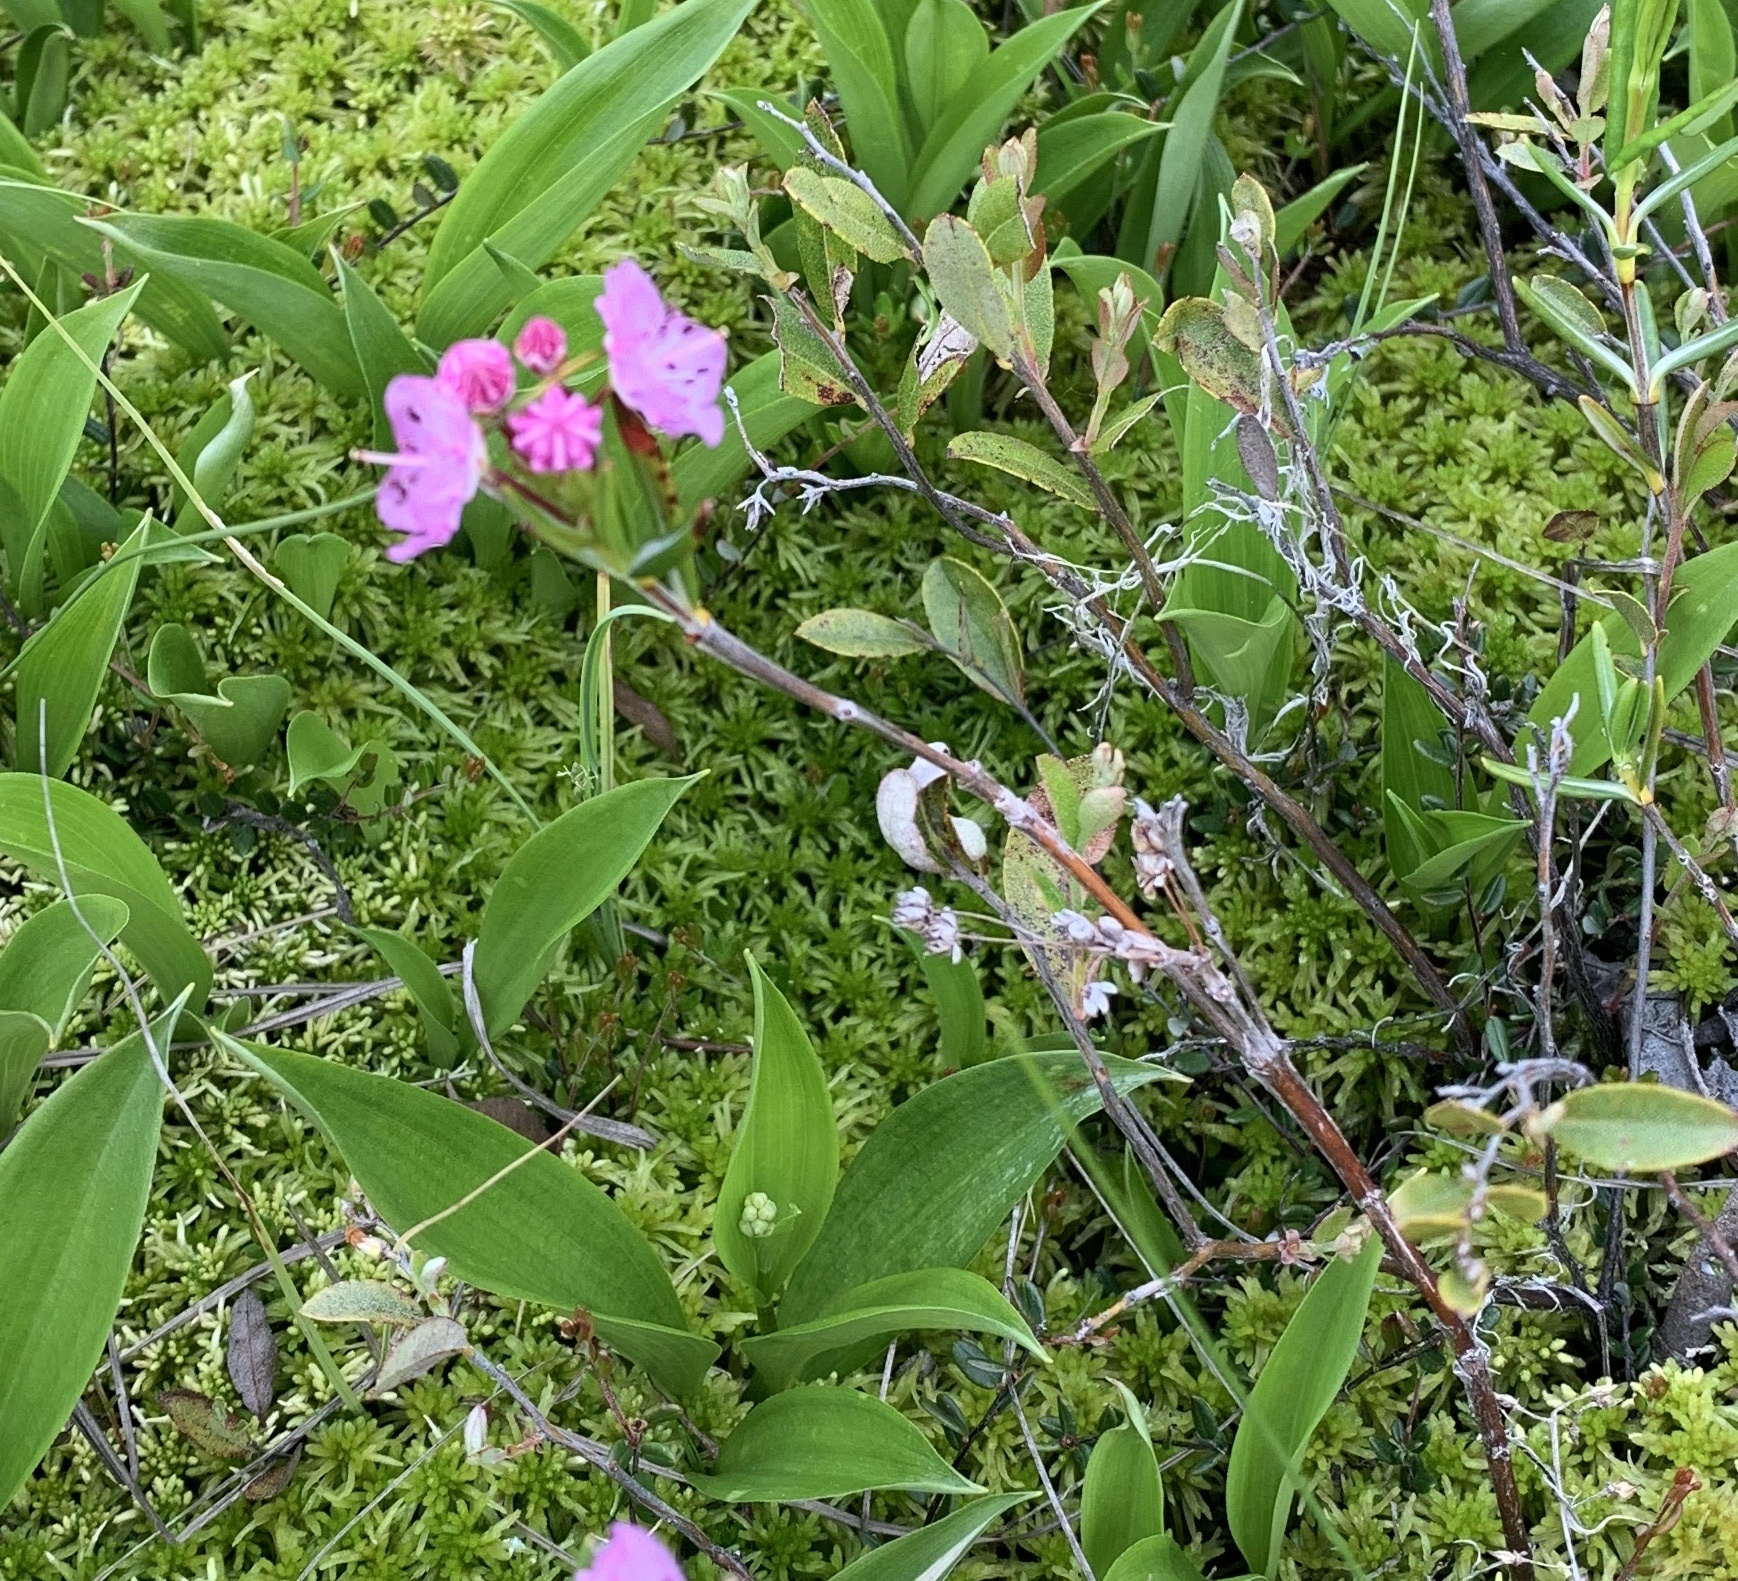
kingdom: Plantae
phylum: Tracheophyta
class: Magnoliopsida
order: Ericales
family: Ericaceae
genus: Kalmia
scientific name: Kalmia polifolia
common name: Bog-laurel
